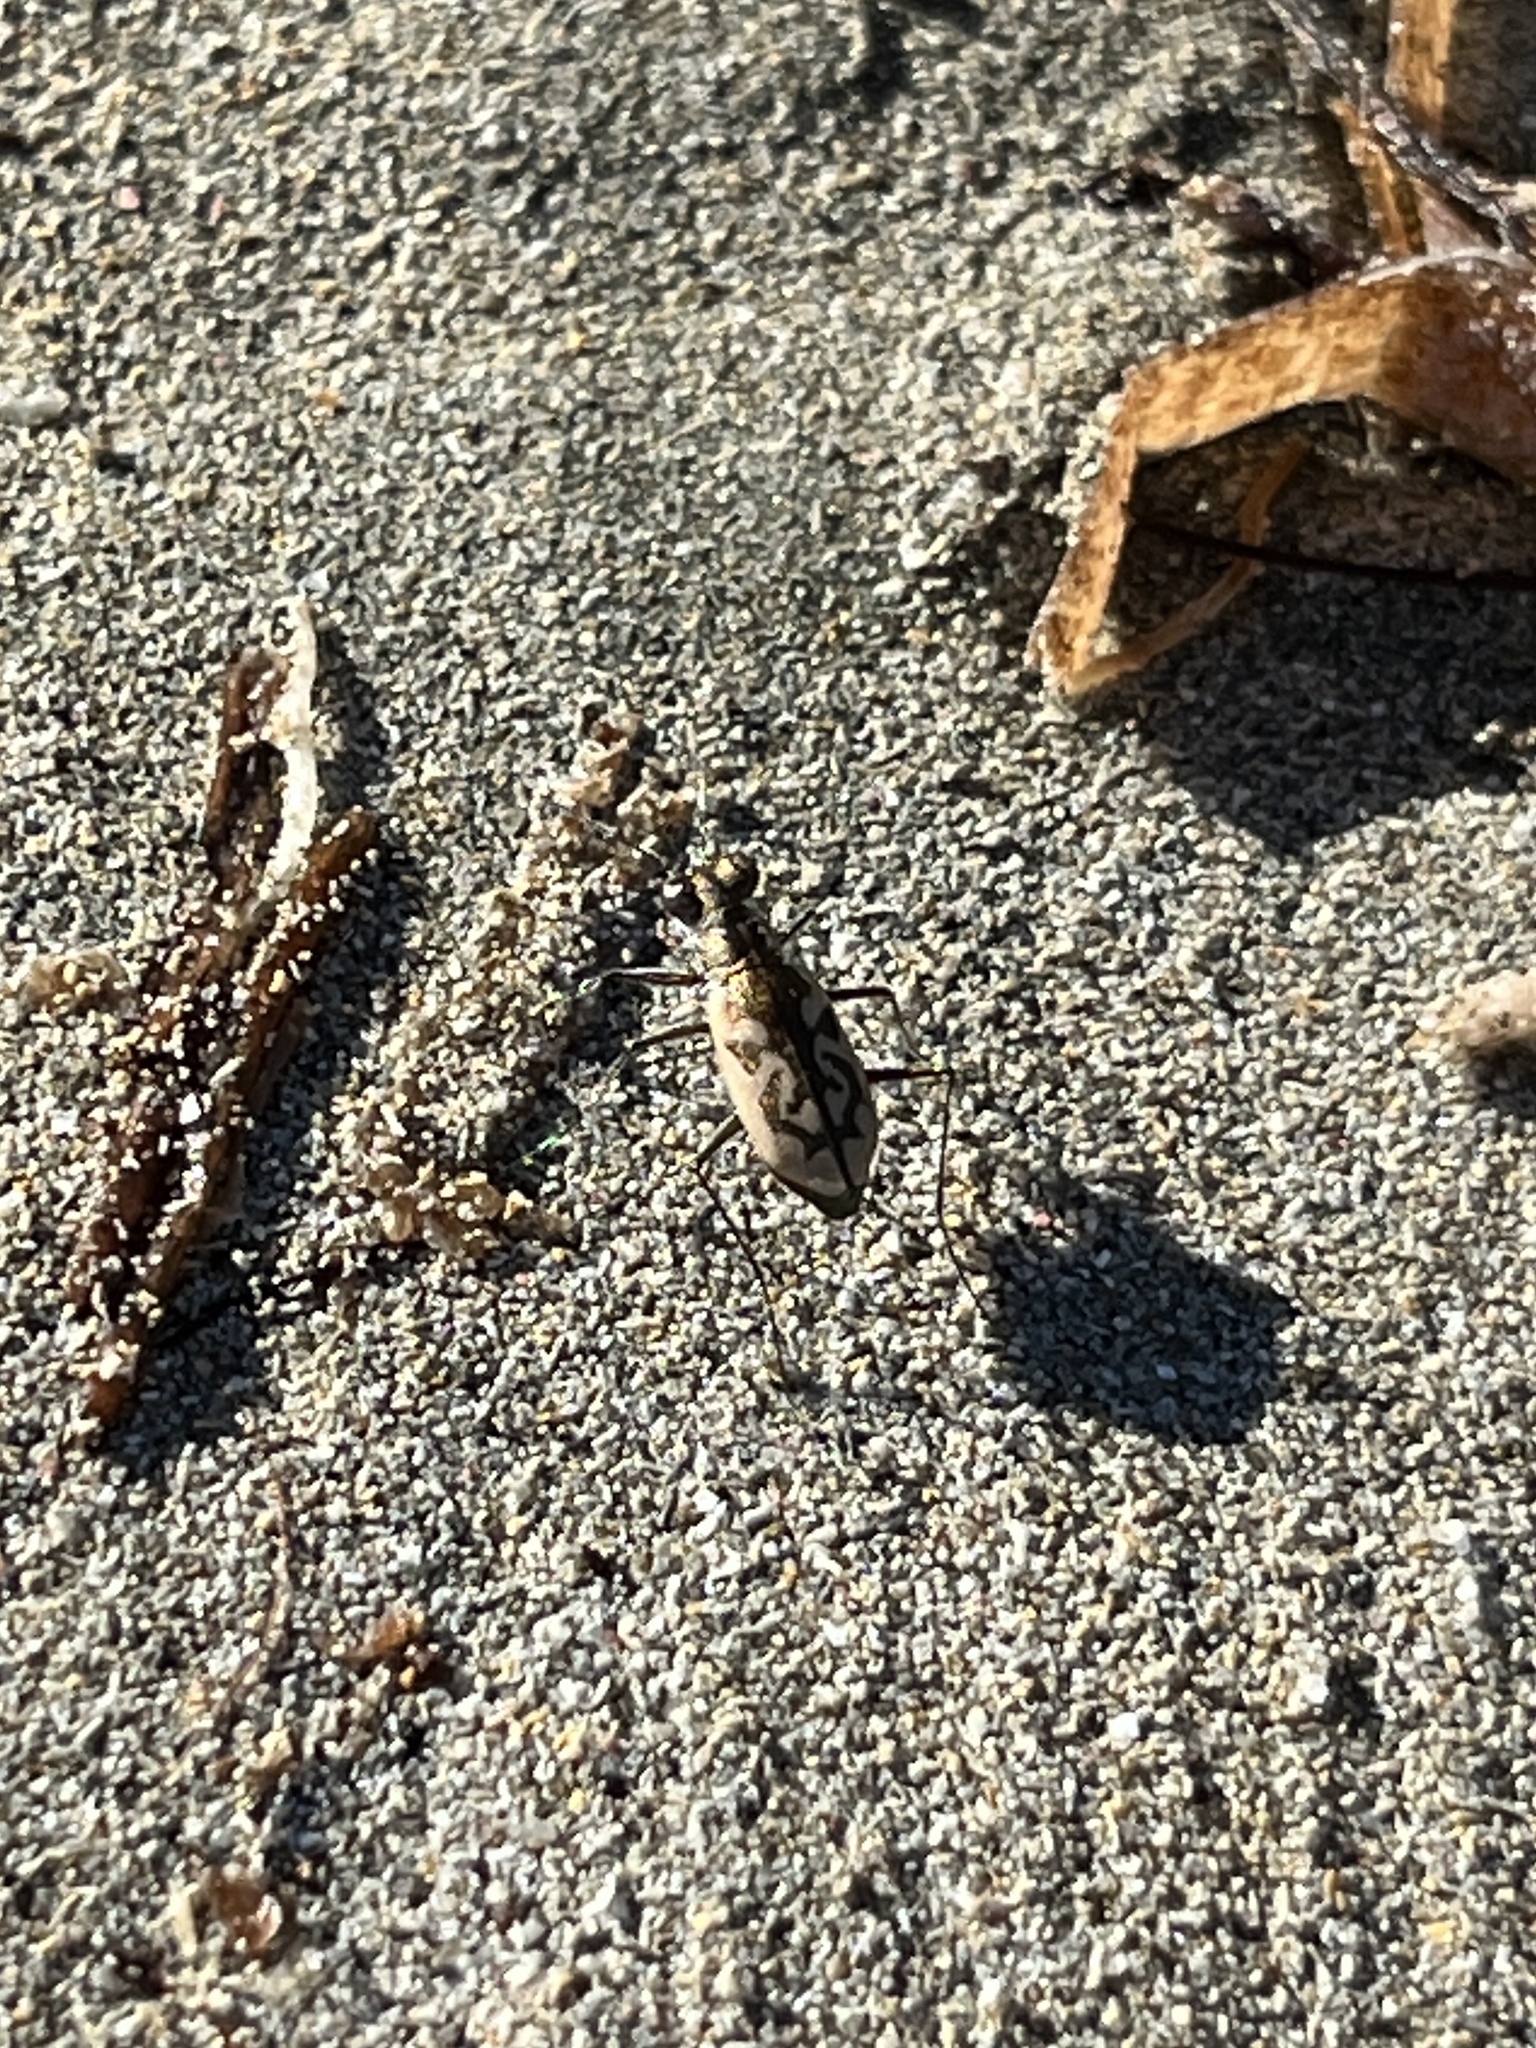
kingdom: Animalia
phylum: Arthropoda
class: Insecta
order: Coleoptera
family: Carabidae
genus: Cylindera
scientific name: Cylindera suturalis
